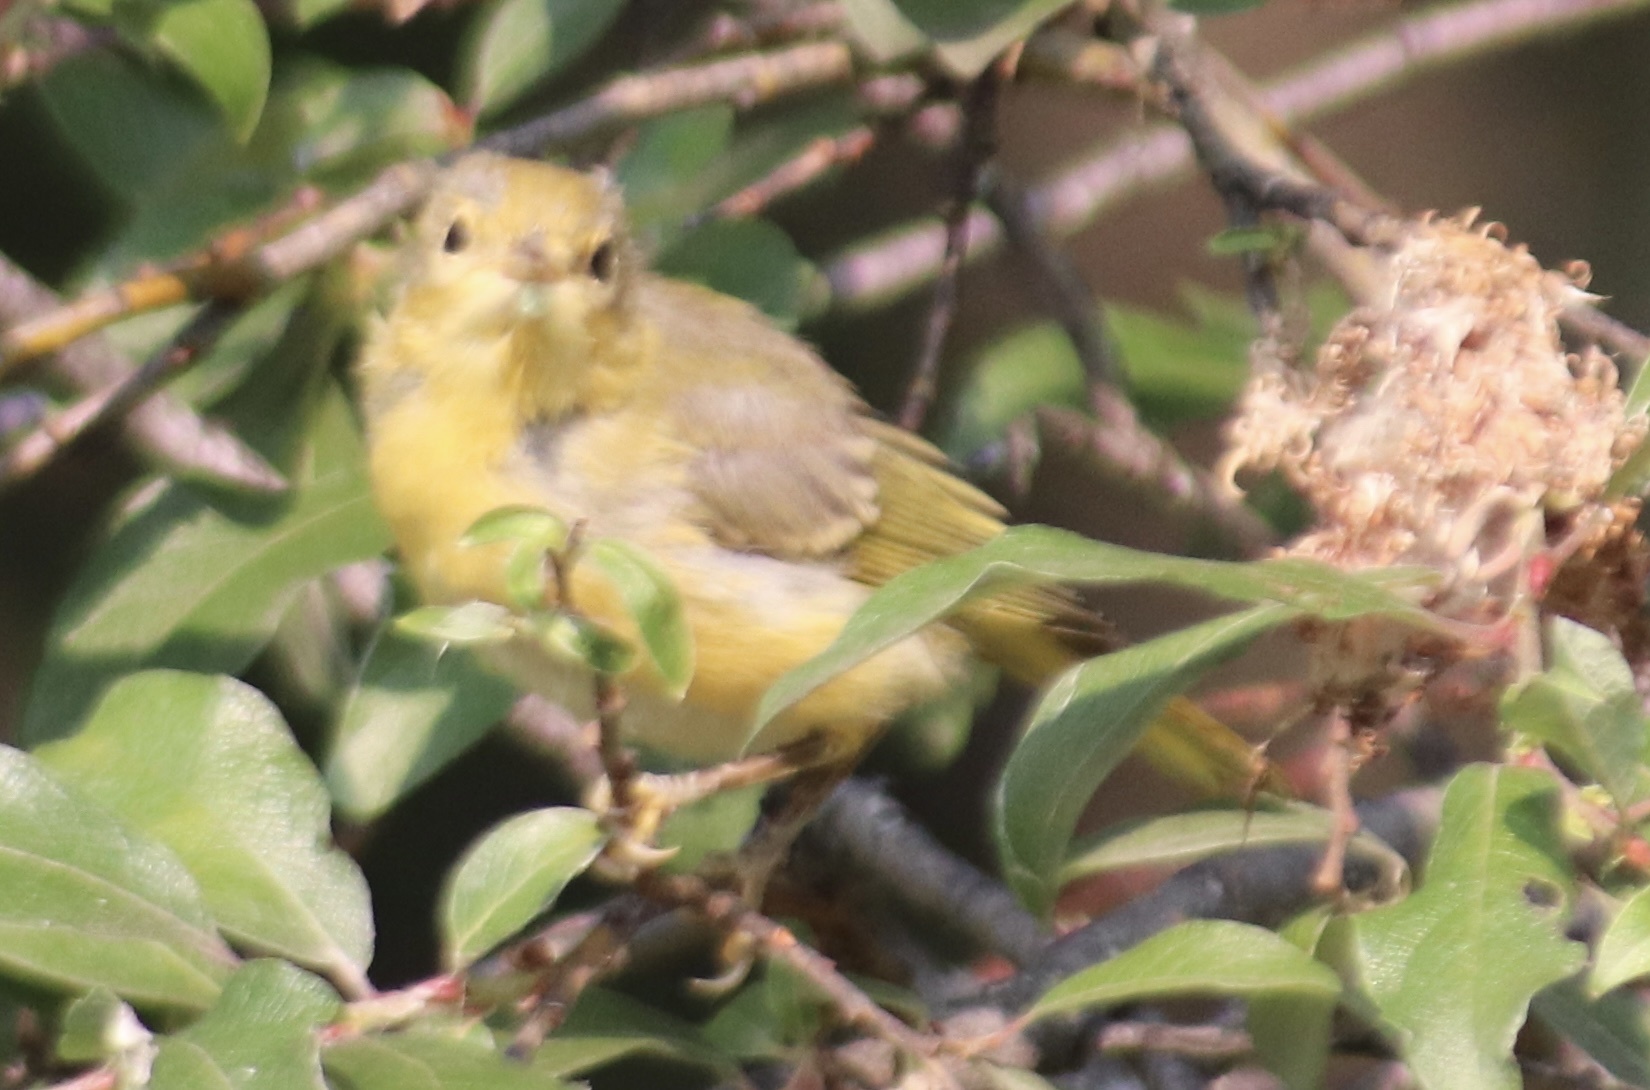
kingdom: Animalia
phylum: Chordata
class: Aves
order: Passeriformes
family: Parulidae
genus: Setophaga
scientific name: Setophaga petechia
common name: Yellow warbler
